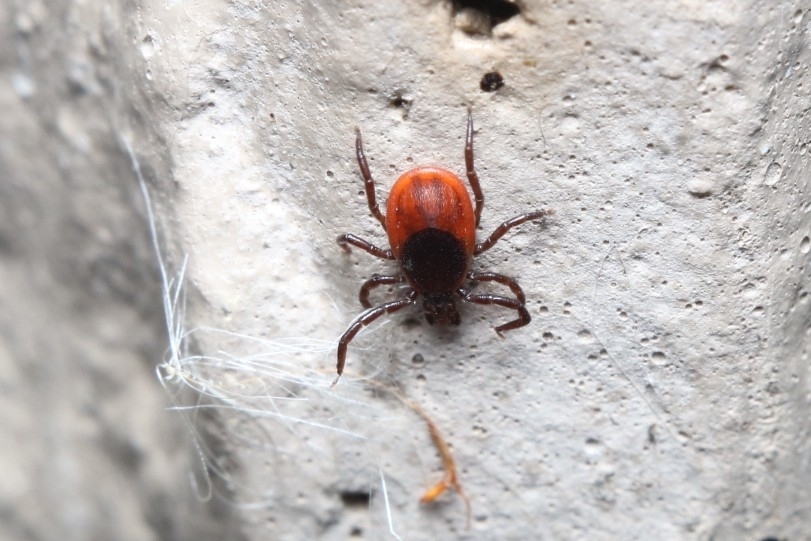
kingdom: Animalia
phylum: Arthropoda
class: Arachnida
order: Ixodida
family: Ixodidae
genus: Ixodes
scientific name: Ixodes scapularis
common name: Black legged tick
